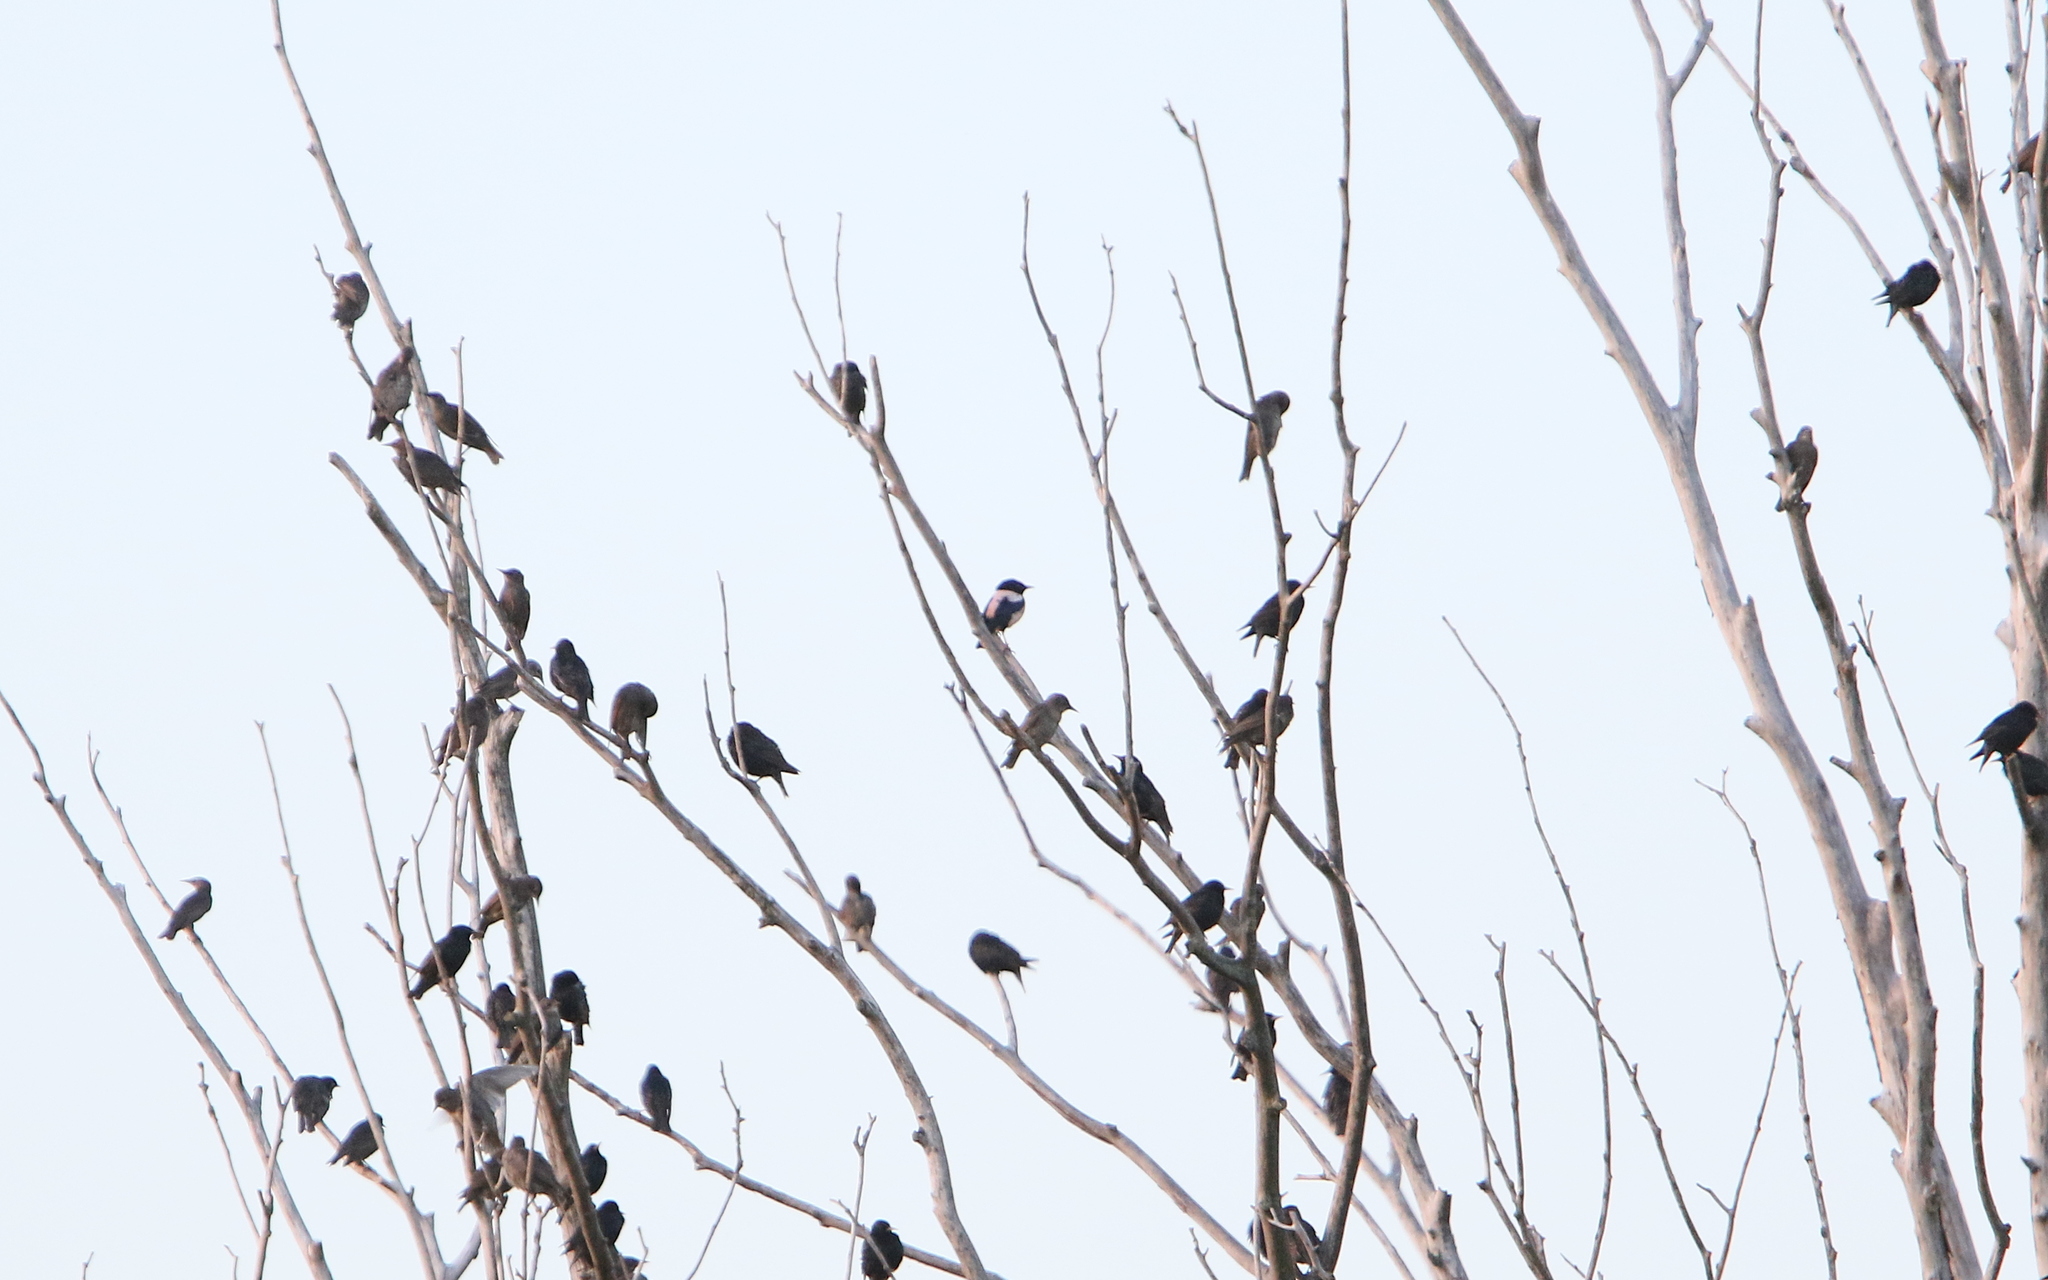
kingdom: Animalia
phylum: Chordata
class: Aves
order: Passeriformes
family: Sturnidae
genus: Pastor
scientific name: Pastor roseus
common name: Rosy starling
